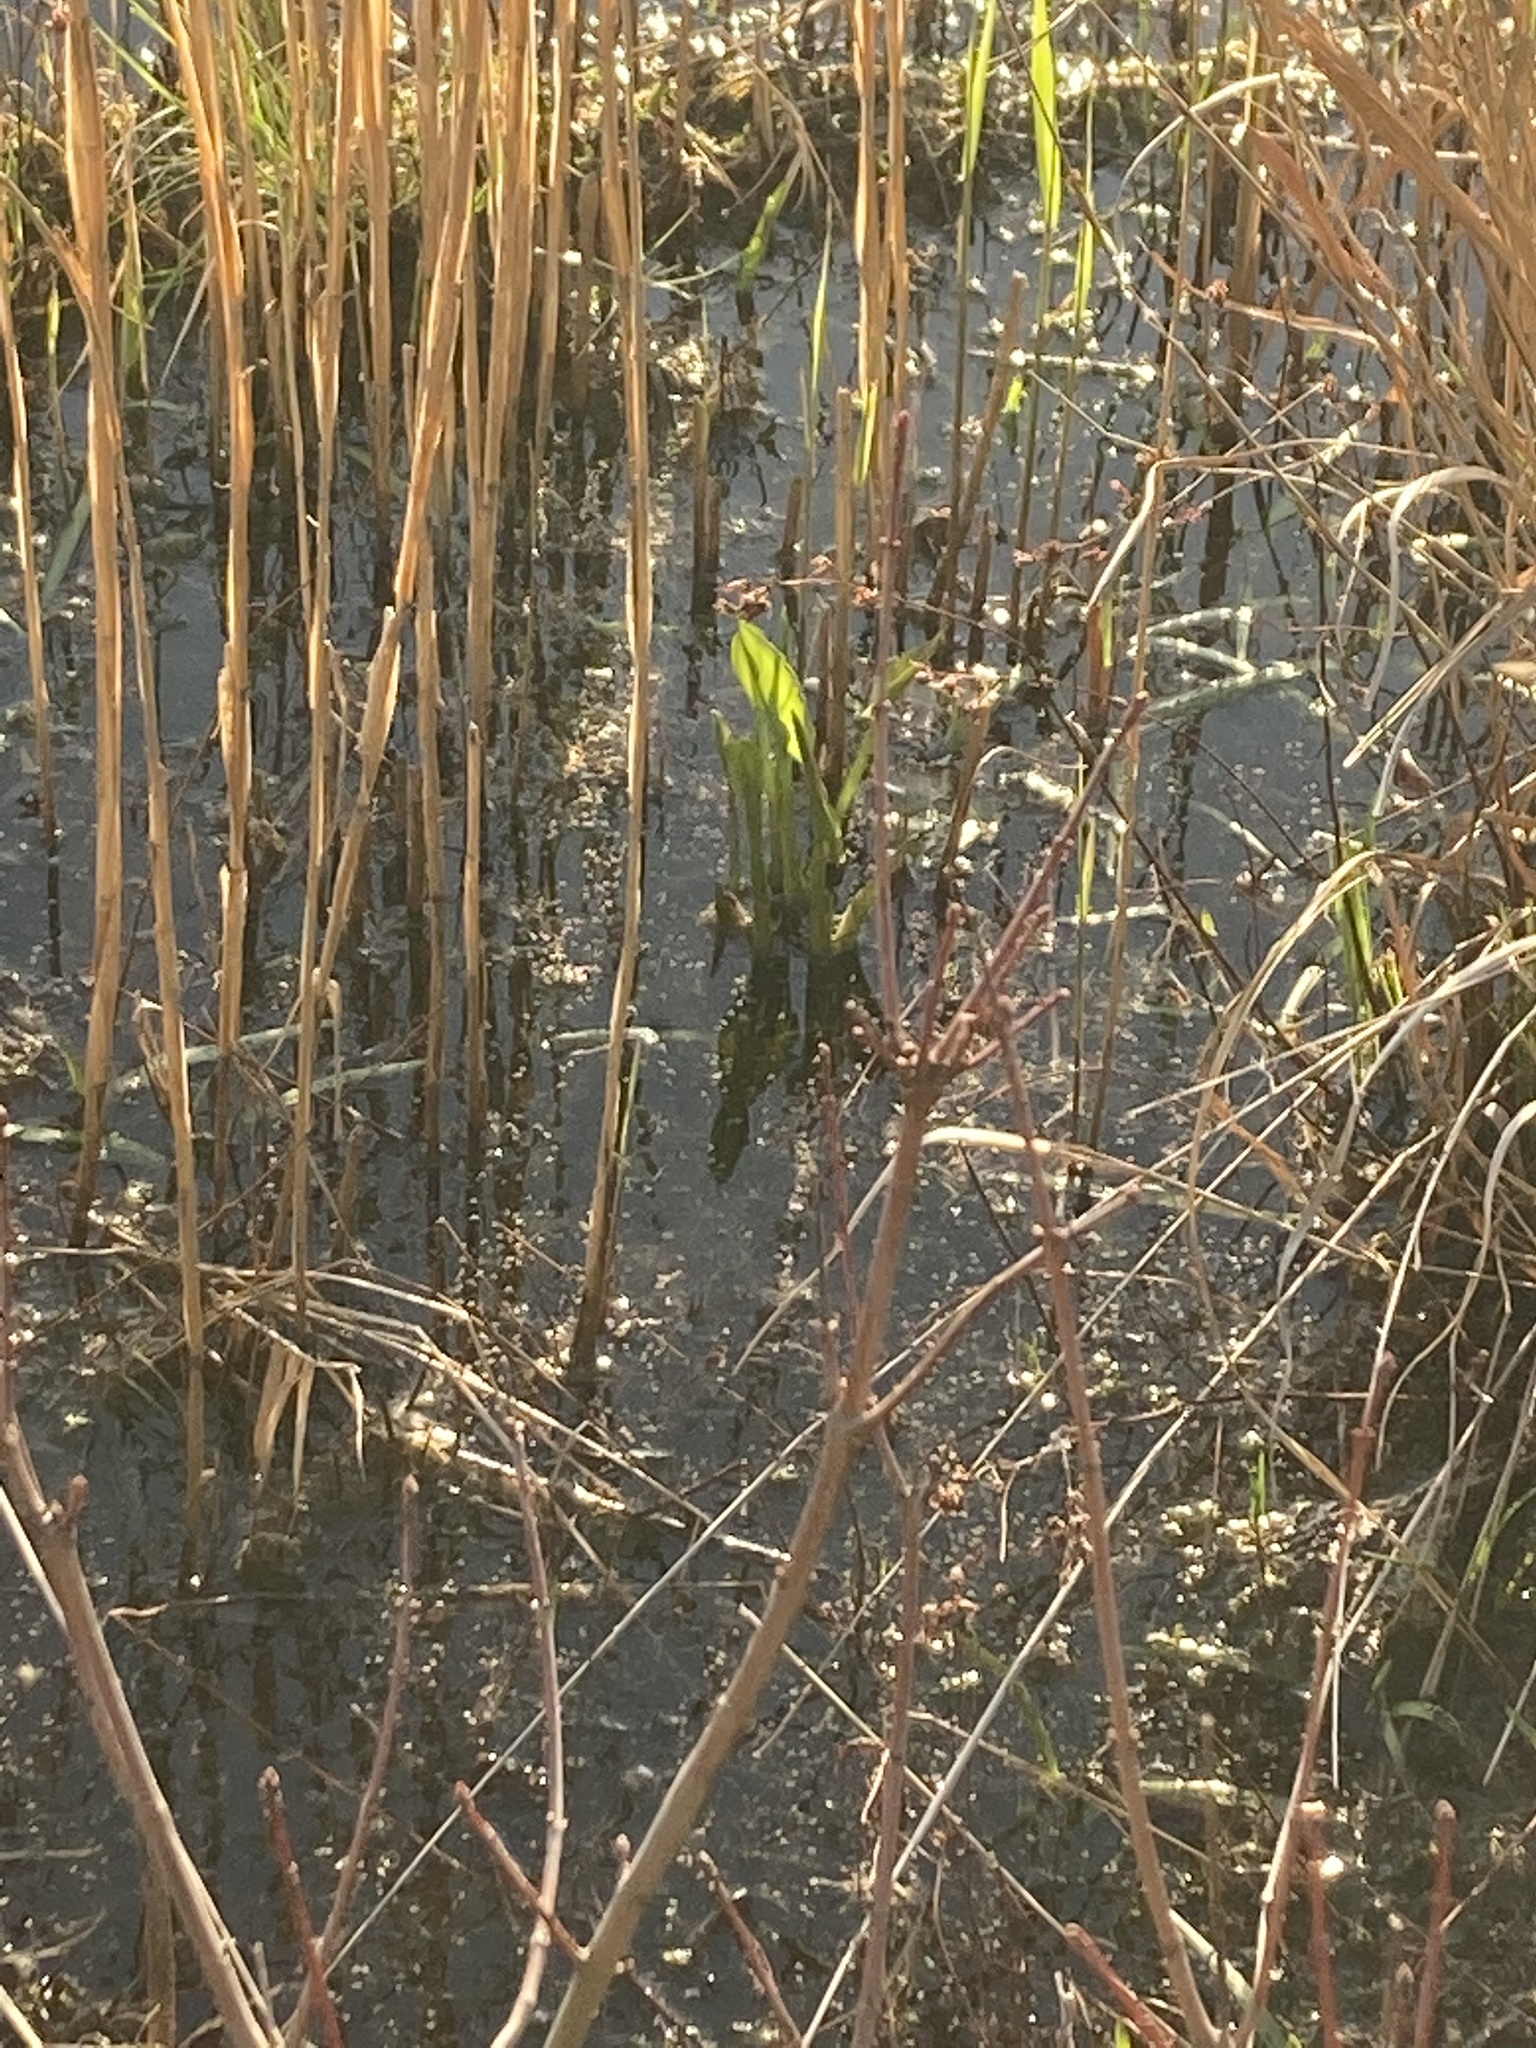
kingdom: Plantae
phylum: Tracheophyta
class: Liliopsida
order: Alismatales
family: Araceae
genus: Peltandra
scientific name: Peltandra virginica
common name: Arrow arum
